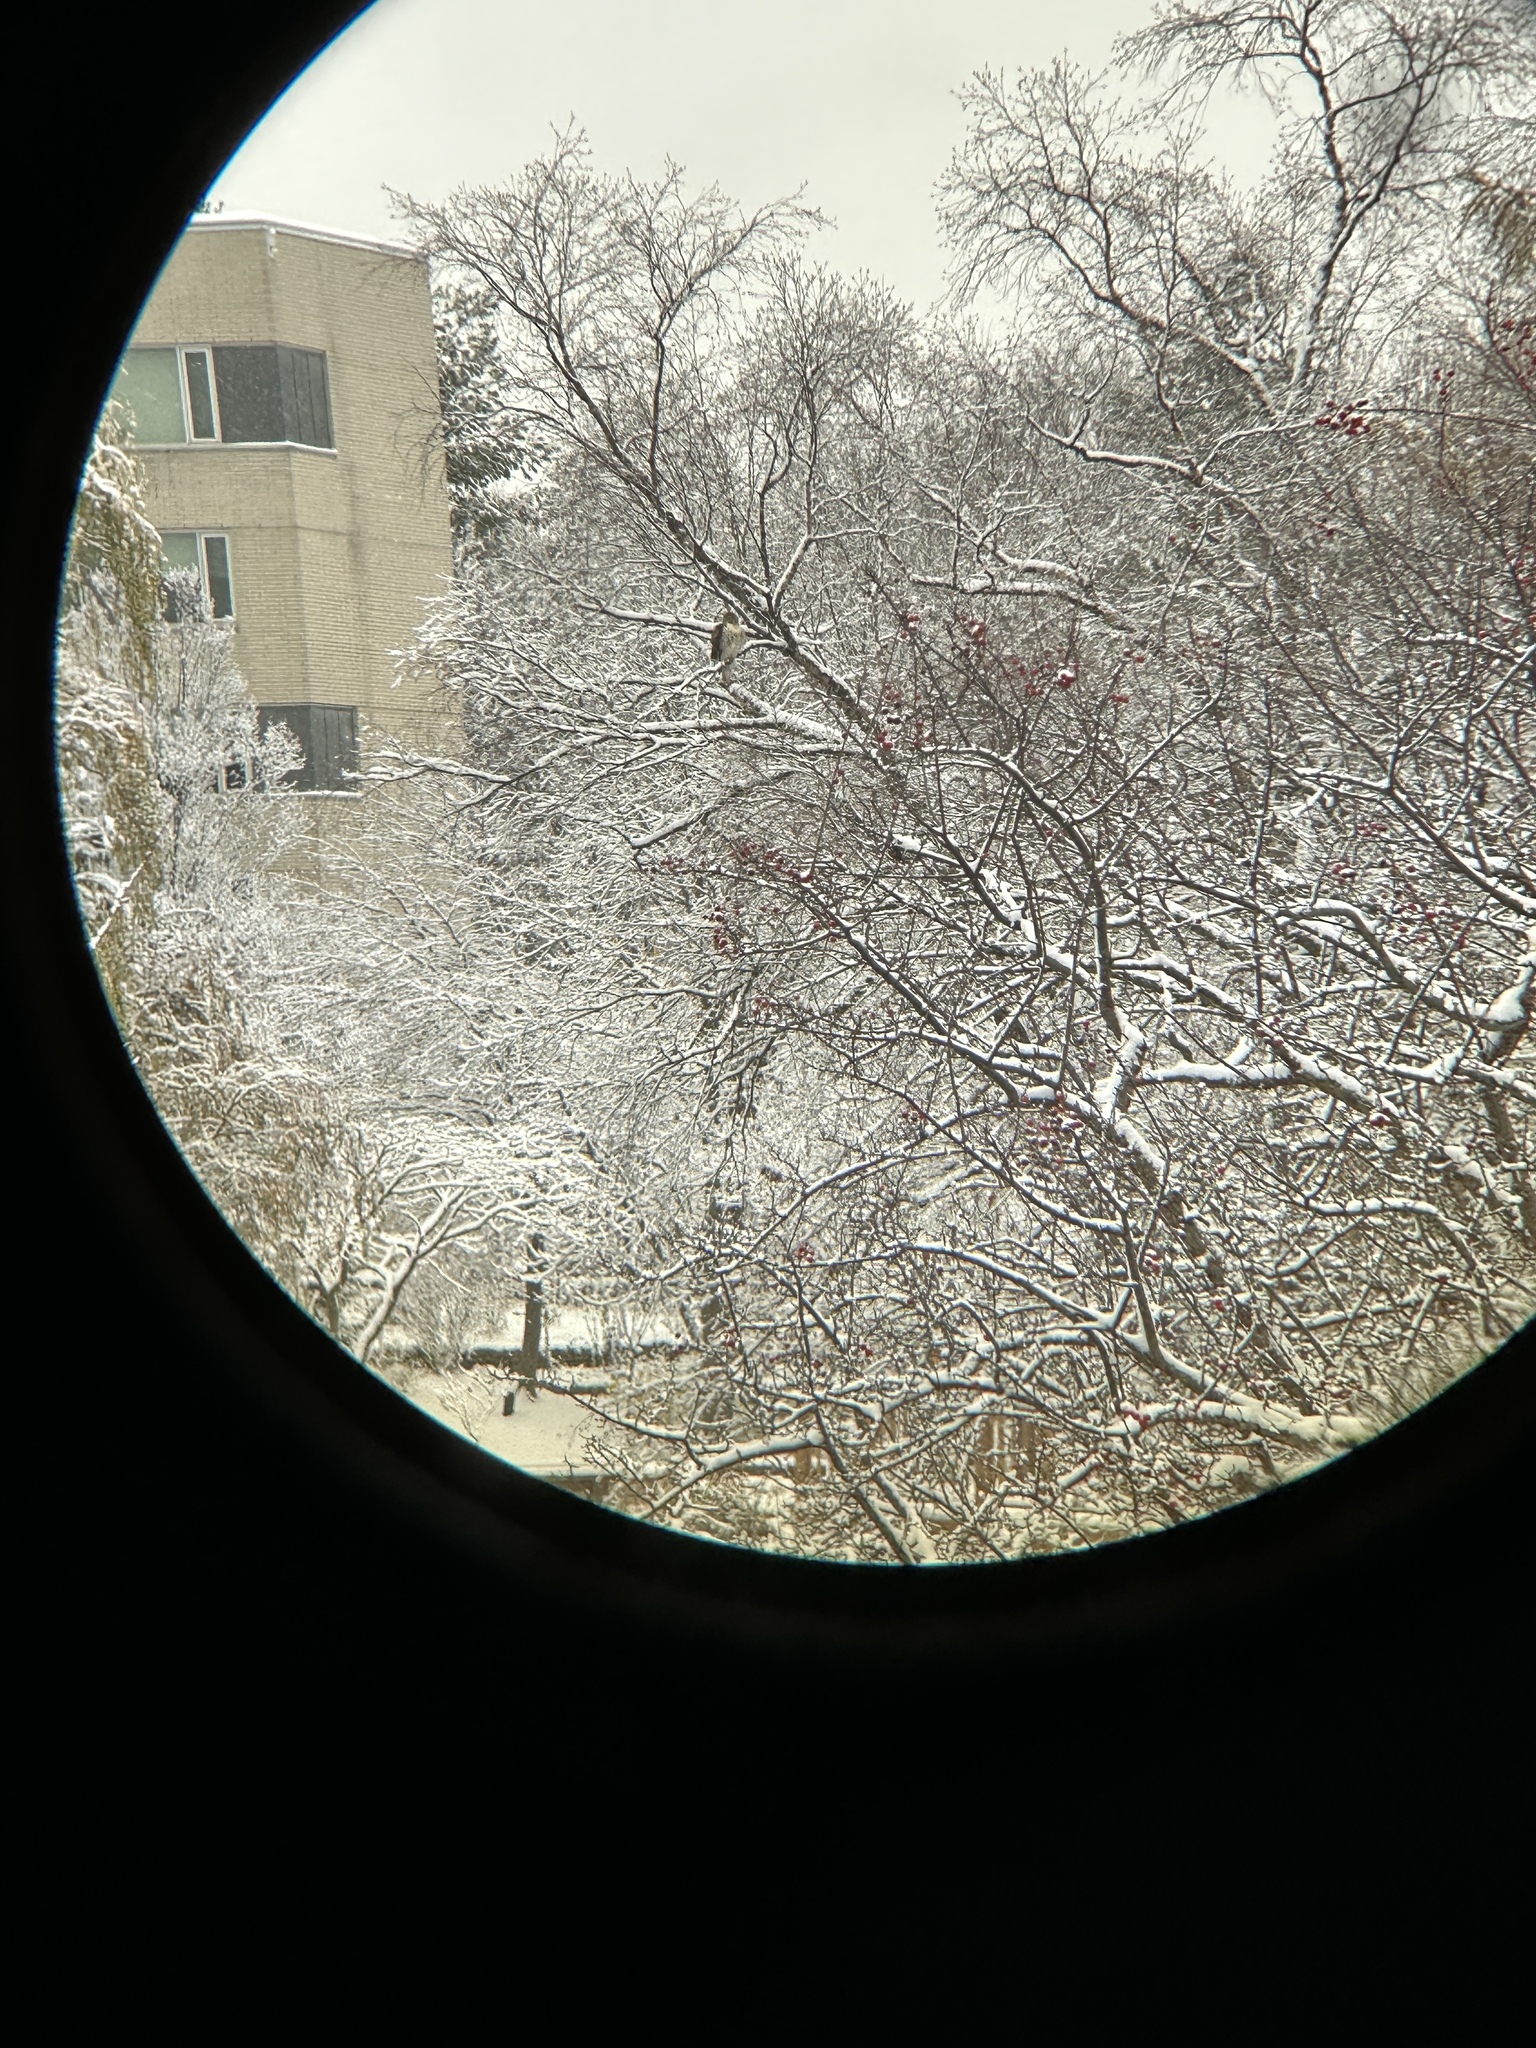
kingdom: Animalia
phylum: Chordata
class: Aves
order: Accipitriformes
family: Accipitridae
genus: Buteo
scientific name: Buteo jamaicensis
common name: Red-tailed hawk
